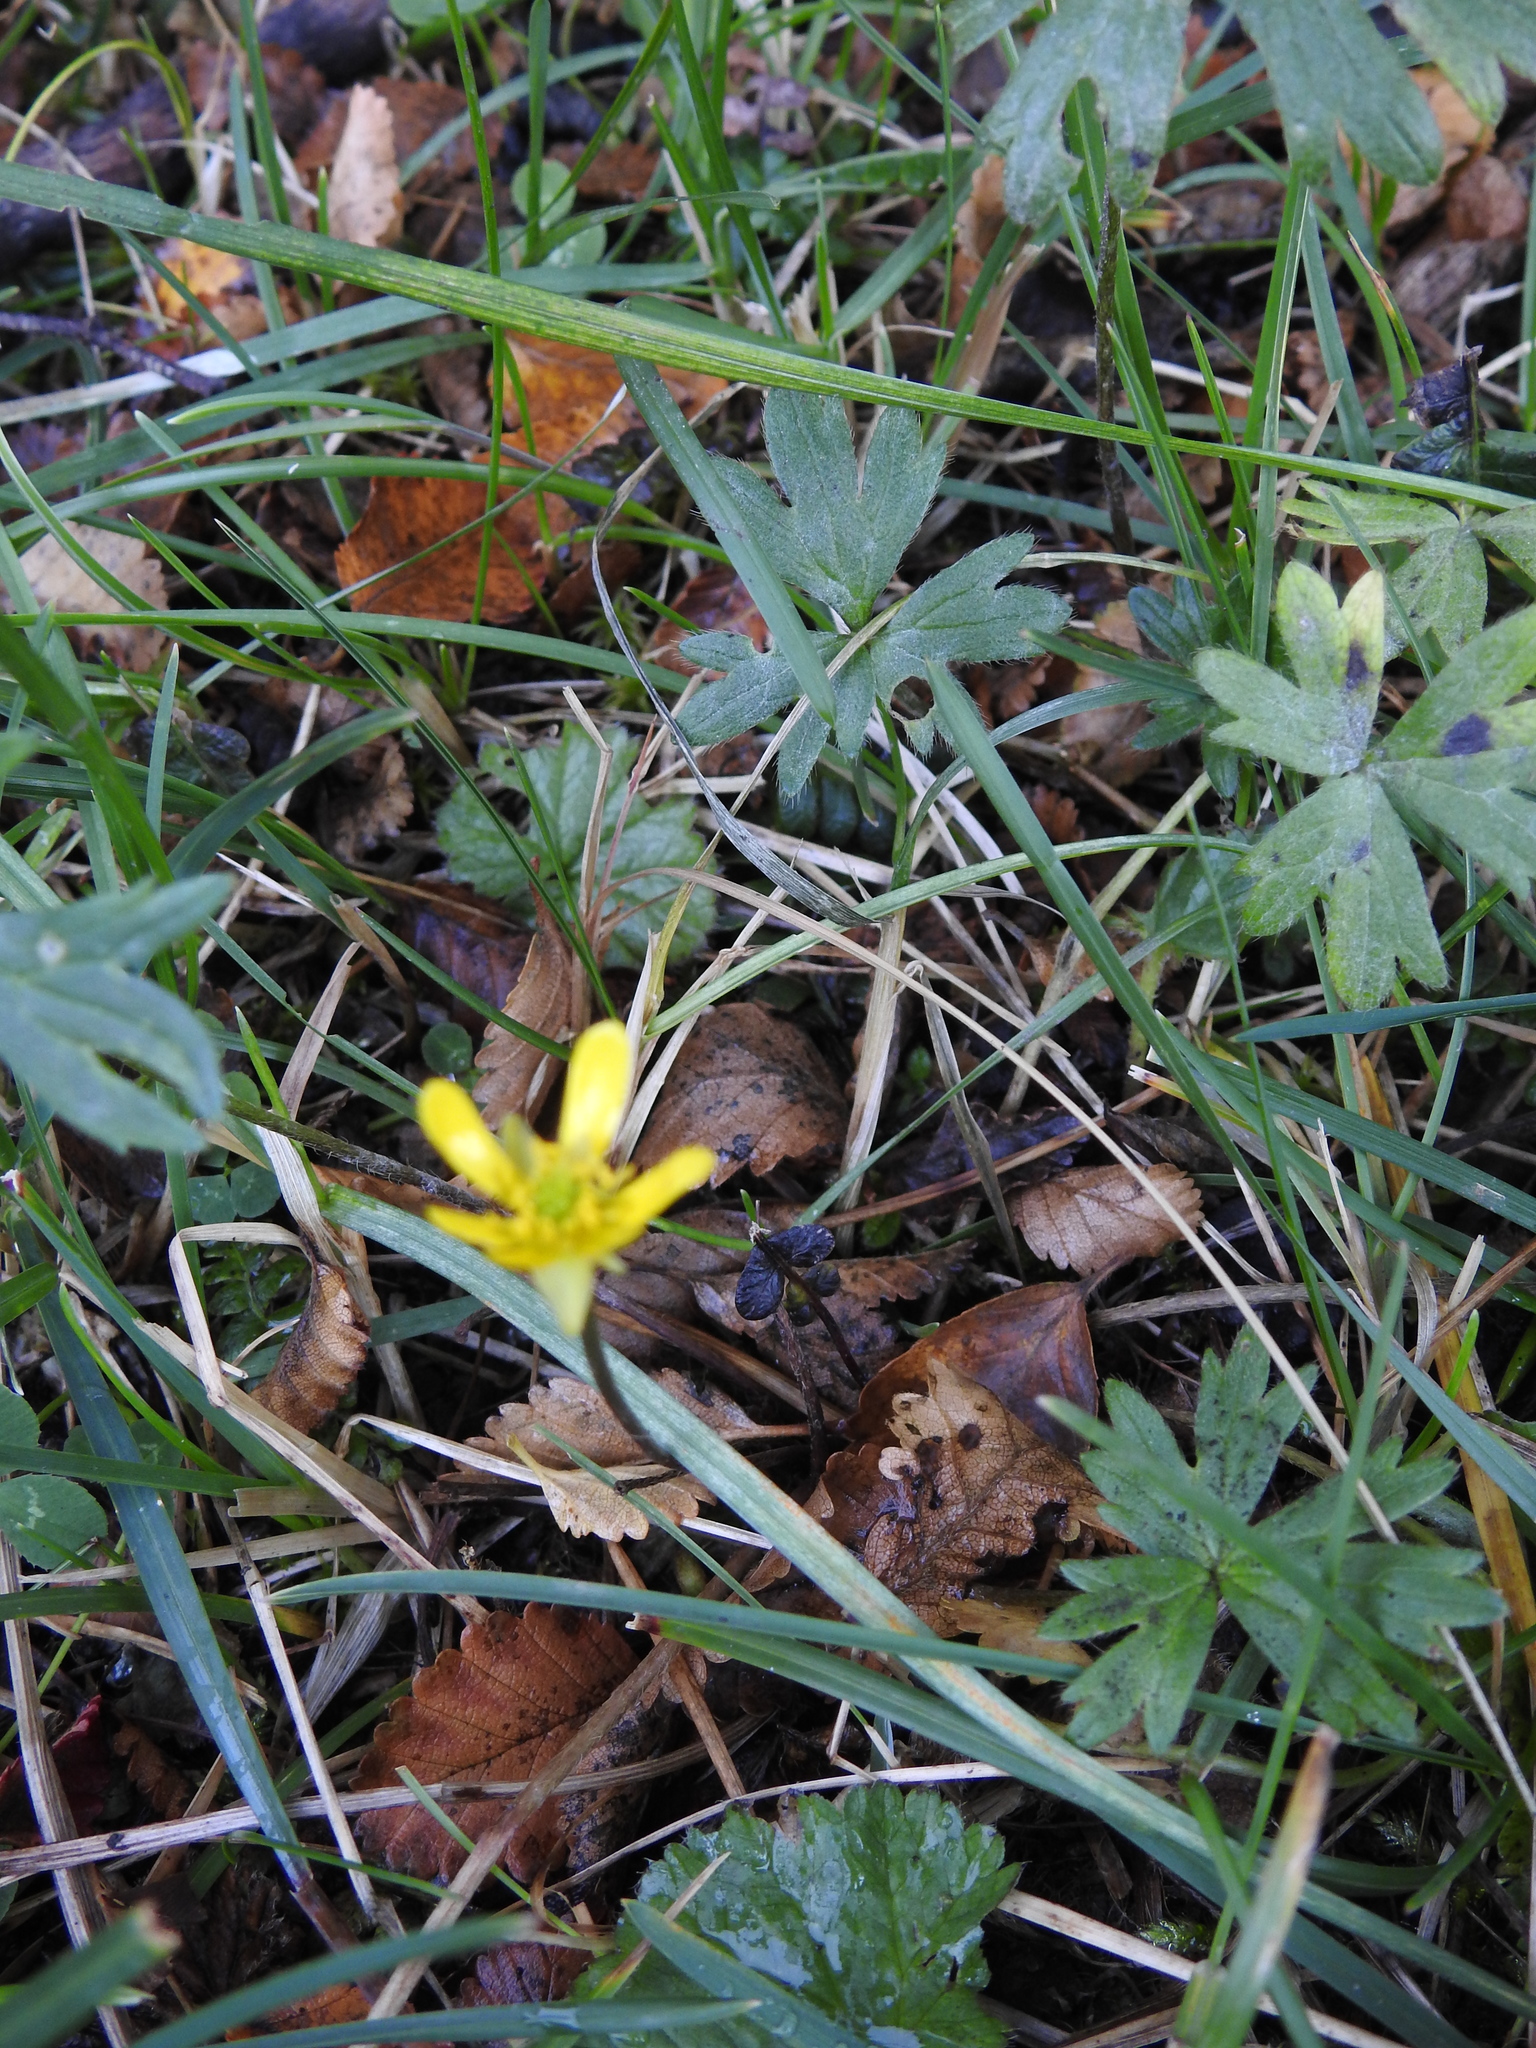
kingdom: Plantae
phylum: Tracheophyta
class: Magnoliopsida
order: Ranunculales
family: Ranunculaceae
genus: Ranunculus
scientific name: Ranunculus peduncularis
